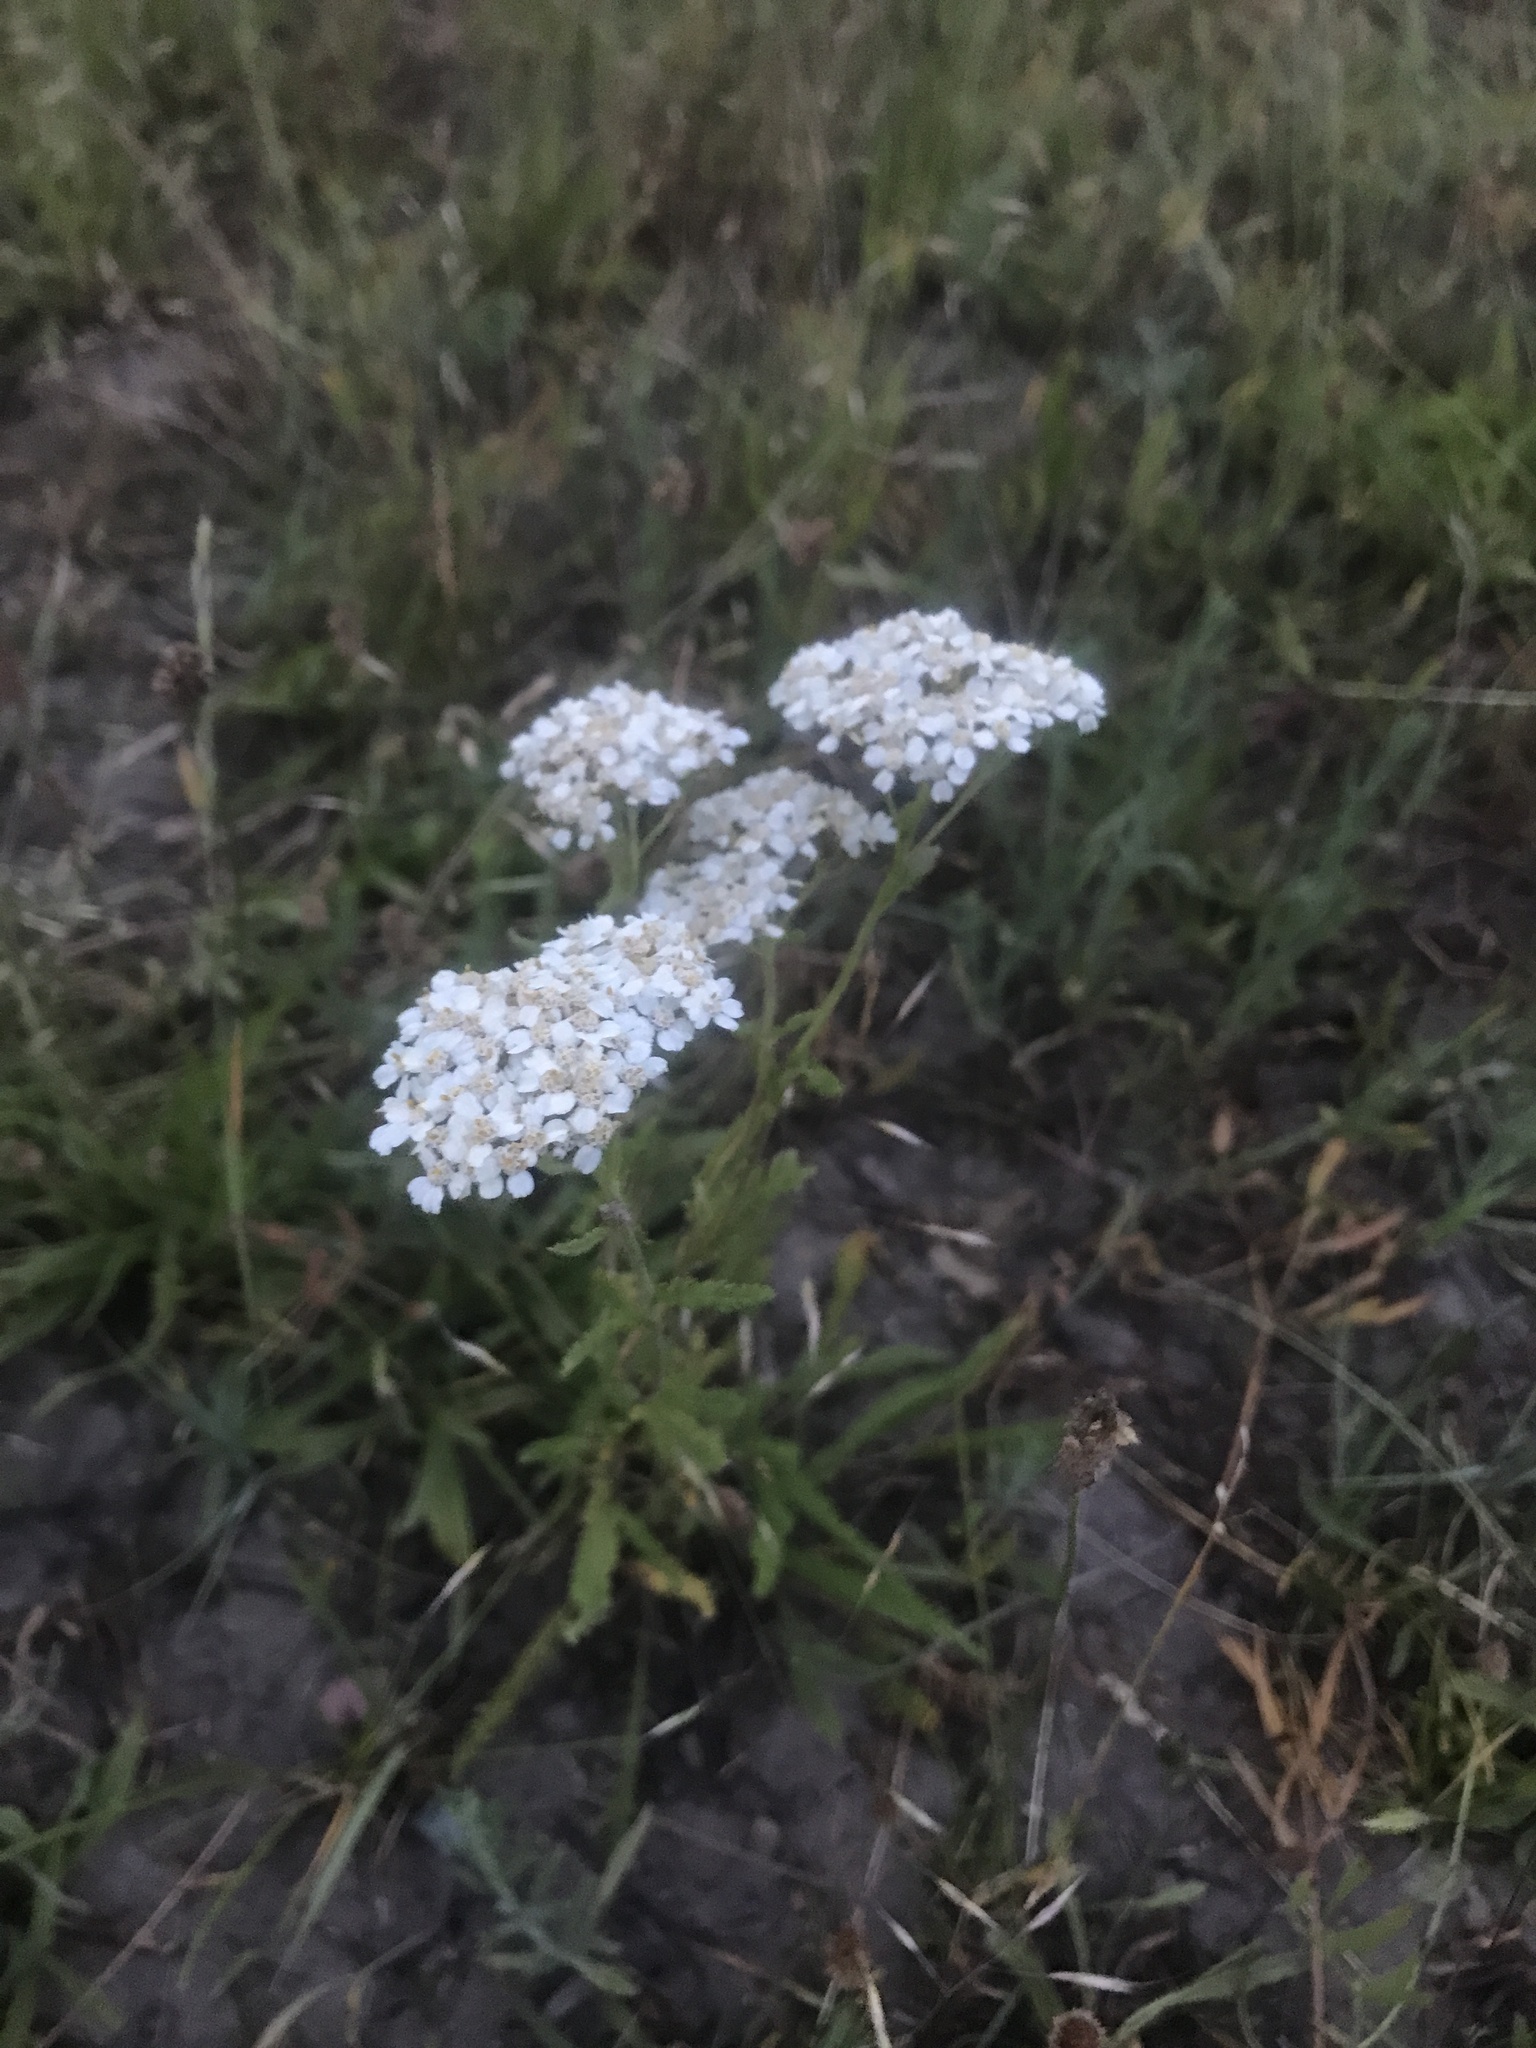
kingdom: Plantae
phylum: Tracheophyta
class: Magnoliopsida
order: Asterales
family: Asteraceae
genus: Achillea
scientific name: Achillea millefolium
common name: Yarrow
